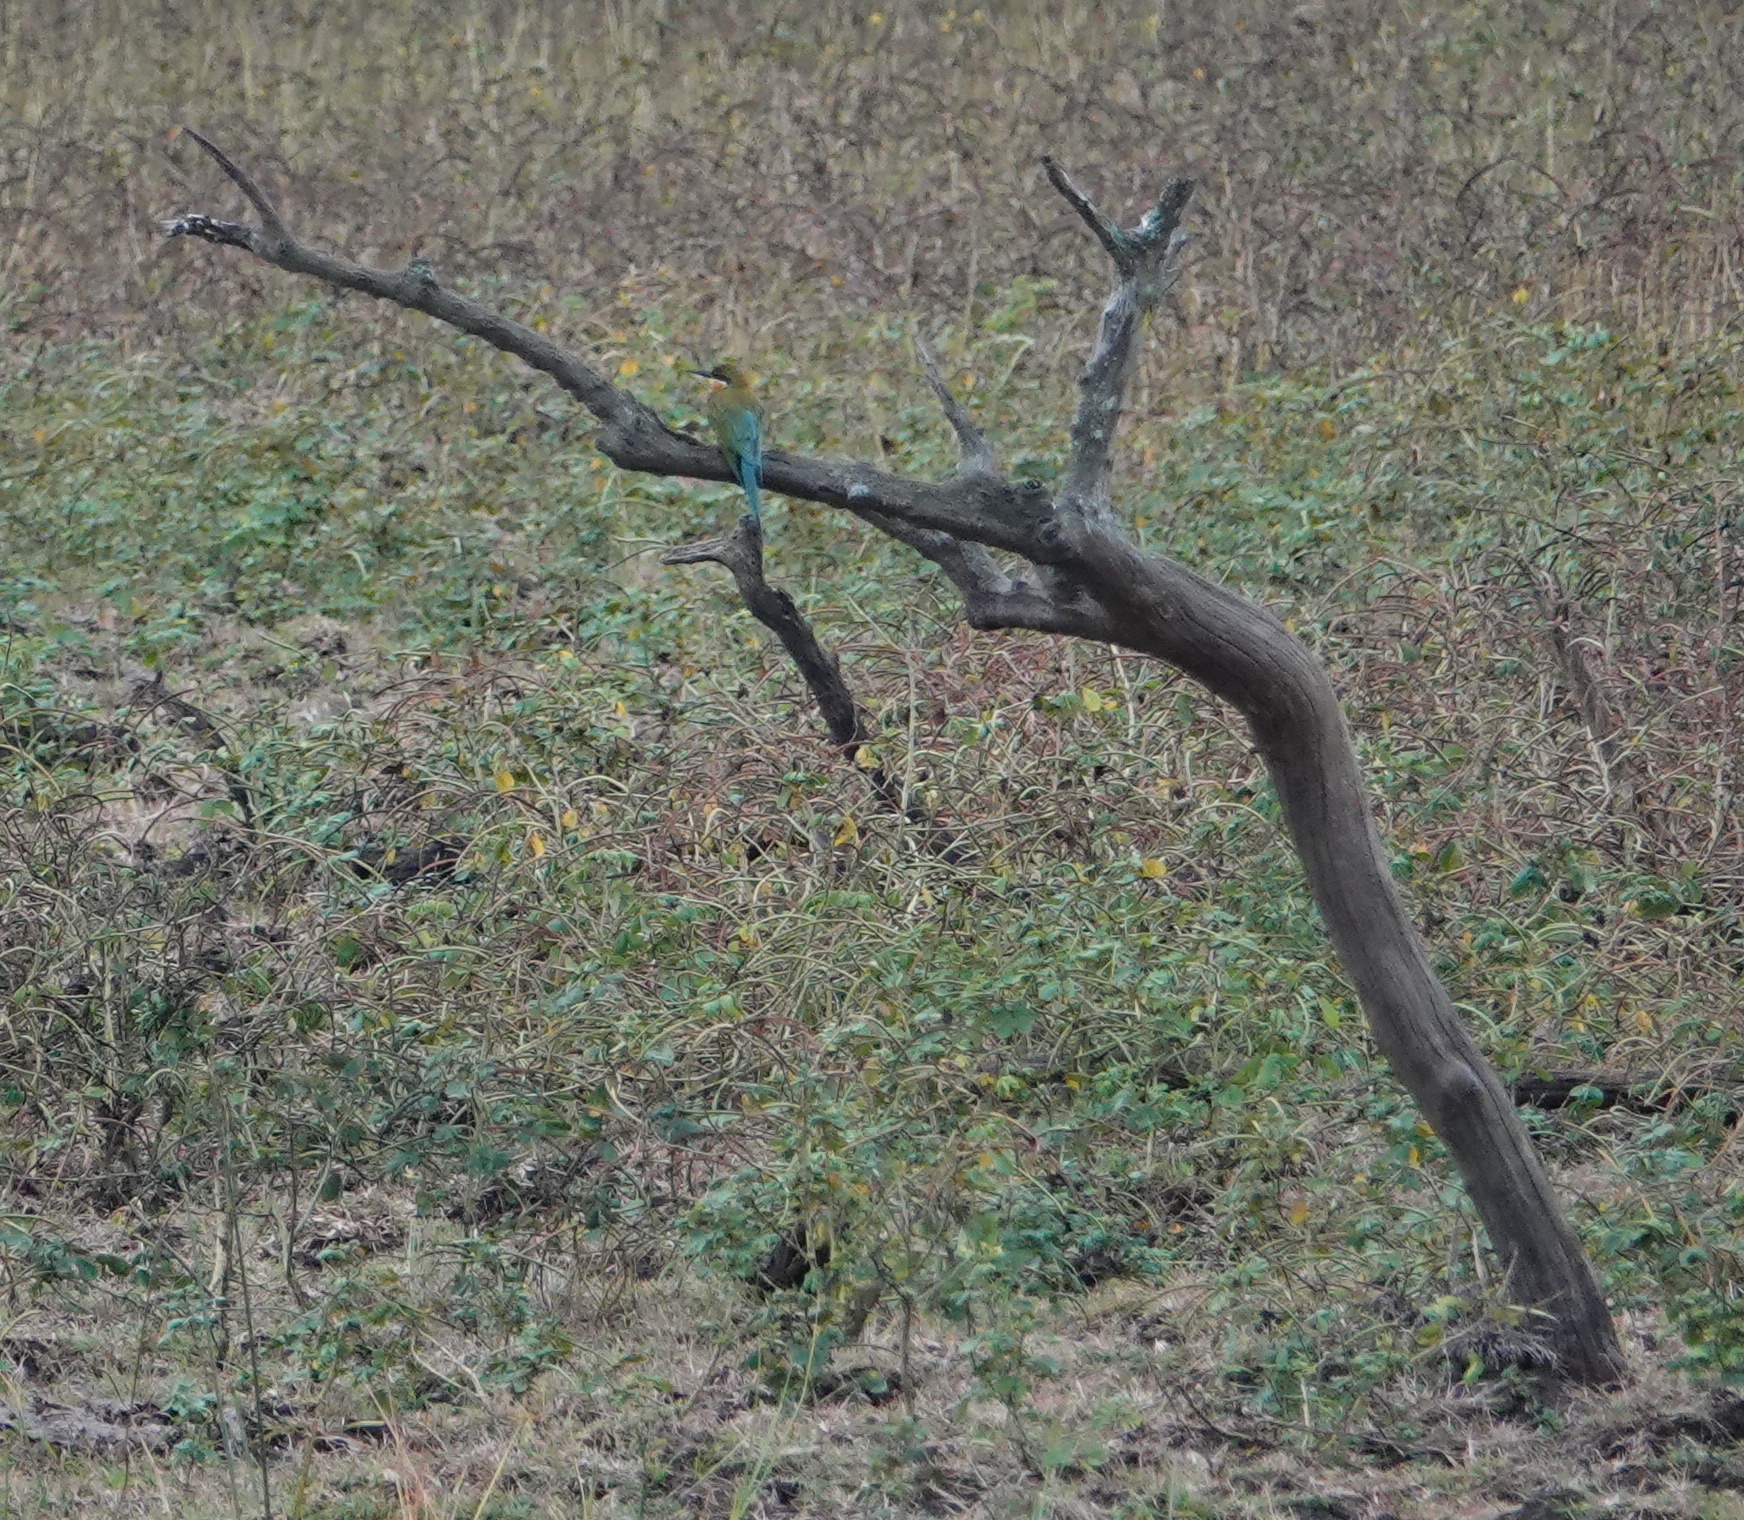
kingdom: Animalia
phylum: Chordata
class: Aves
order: Coraciiformes
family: Meropidae
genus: Merops
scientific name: Merops philippinus
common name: Blue-tailed bee-eater
